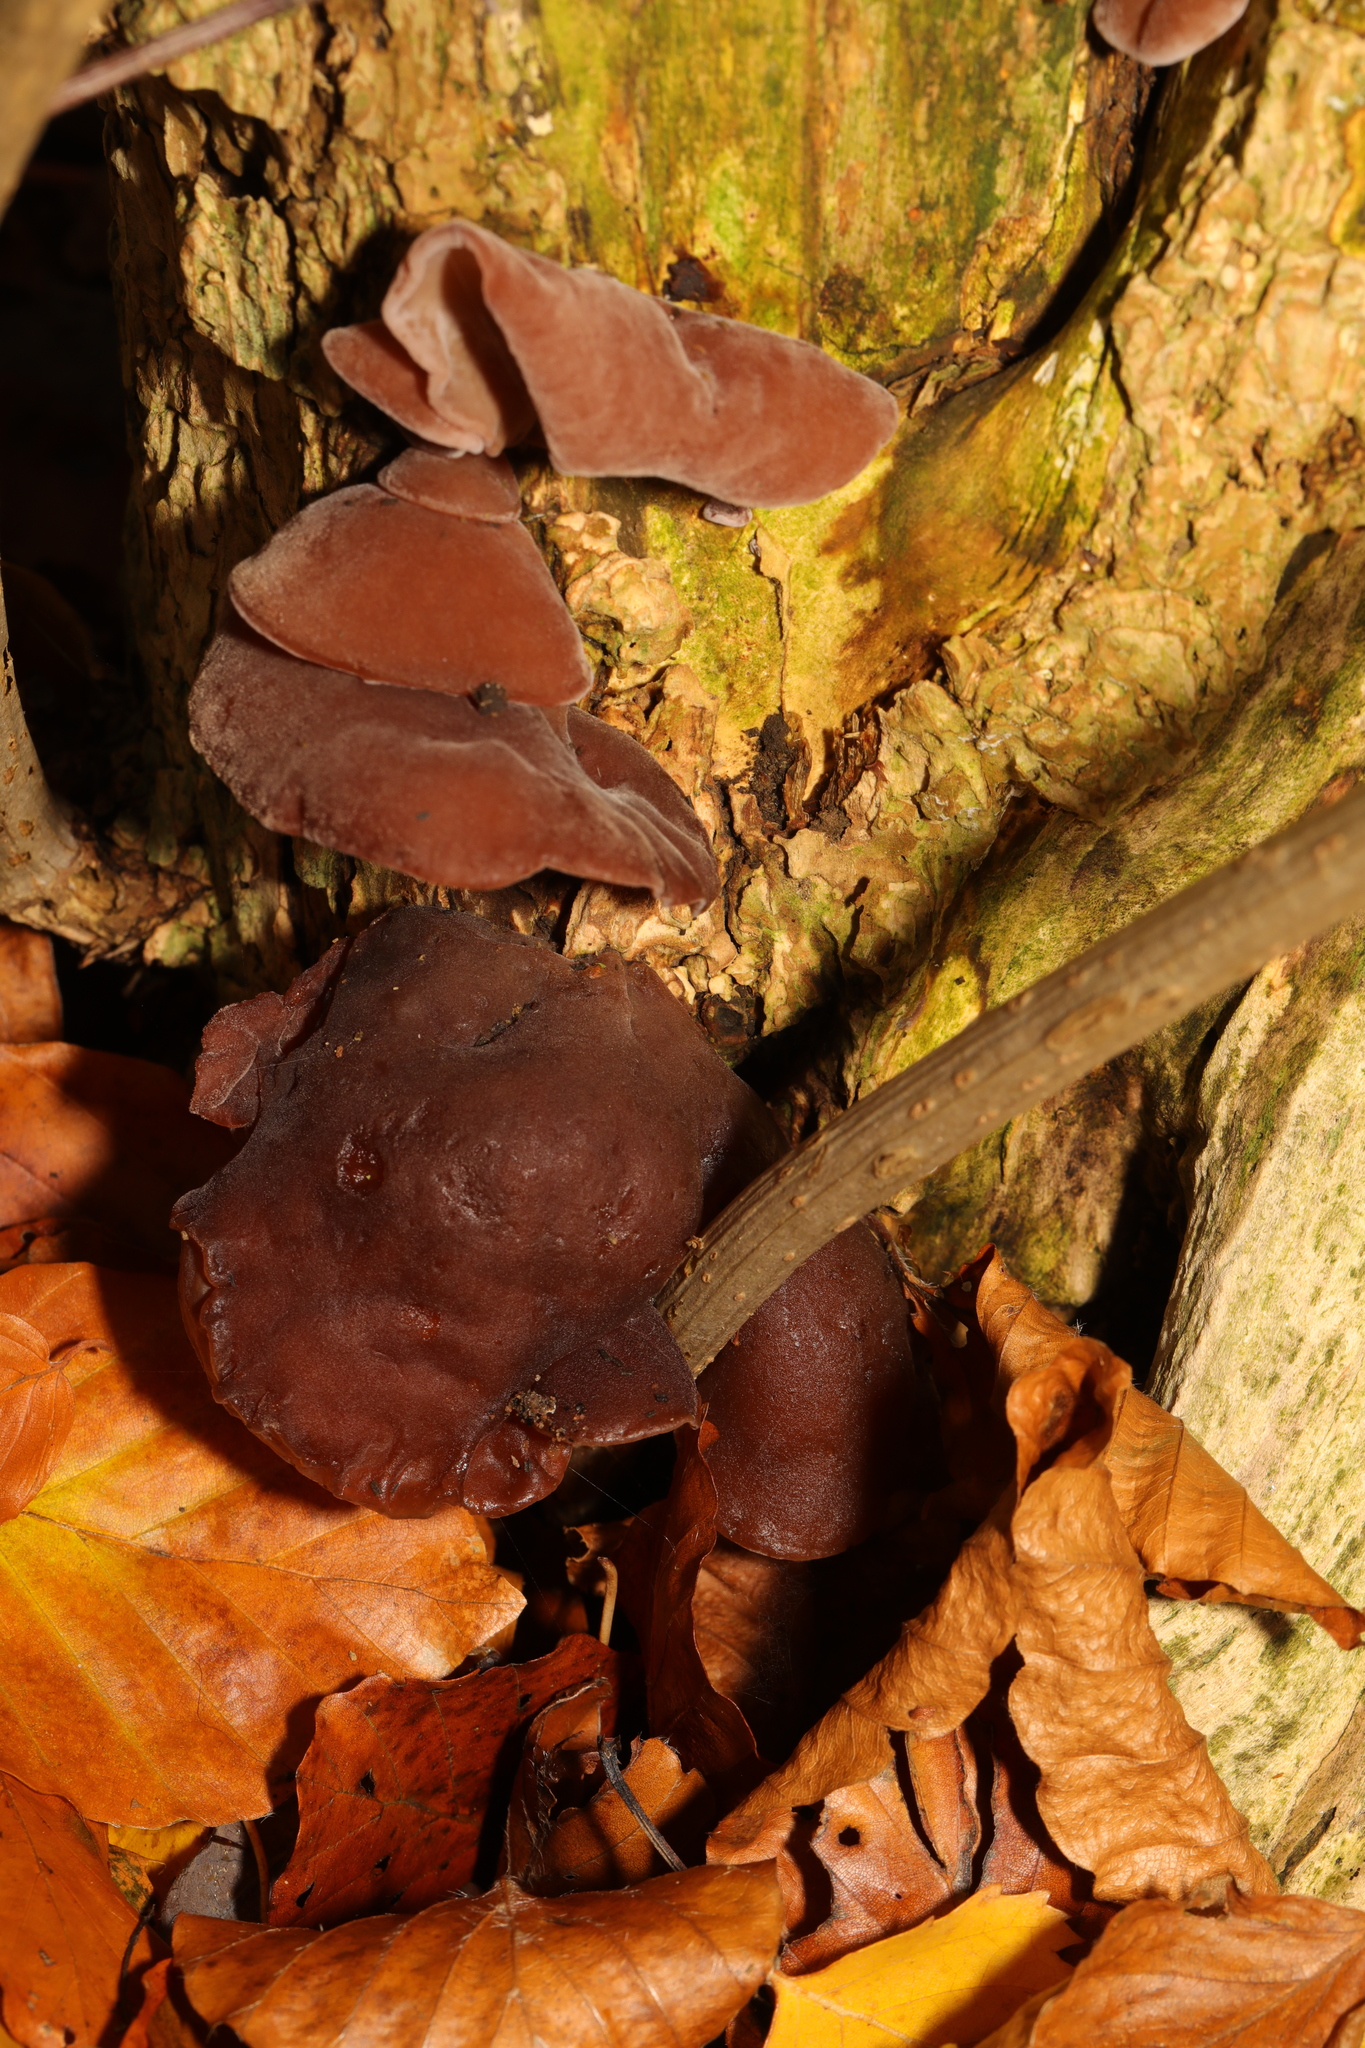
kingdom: Fungi
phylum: Basidiomycota
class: Agaricomycetes
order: Auriculariales
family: Auriculariaceae
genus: Auricularia
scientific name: Auricularia auricula-judae
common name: Jelly ear
